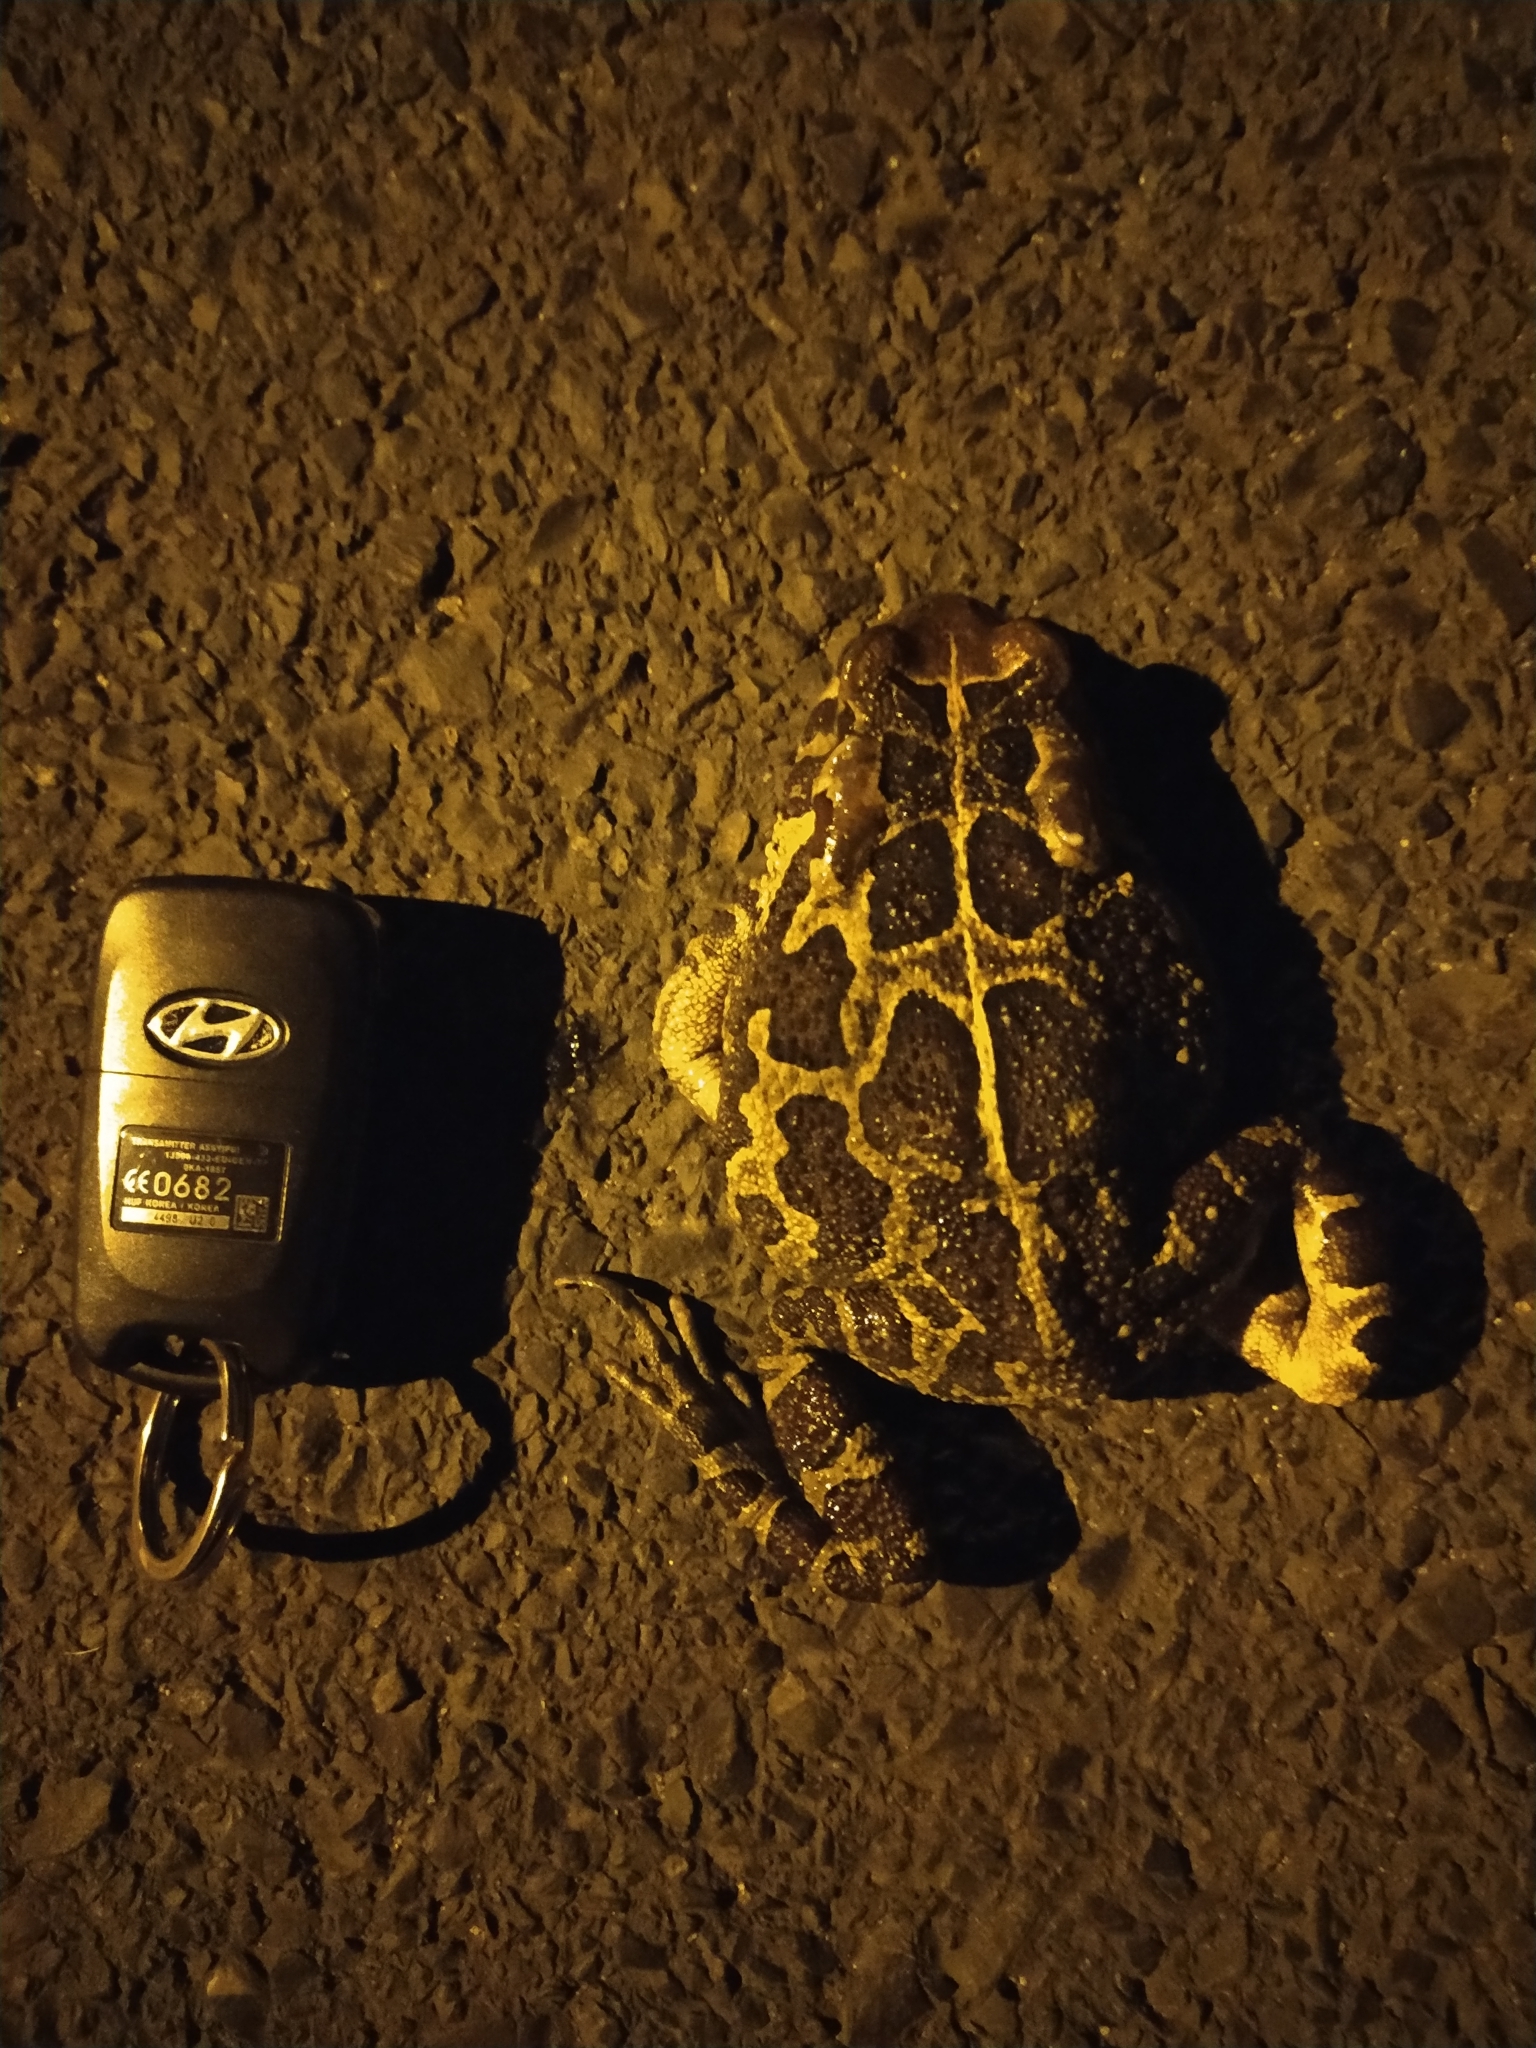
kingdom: Animalia
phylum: Chordata
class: Amphibia
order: Anura
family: Bufonidae
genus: Sclerophrys
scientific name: Sclerophrys pantherina
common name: Panther toad
